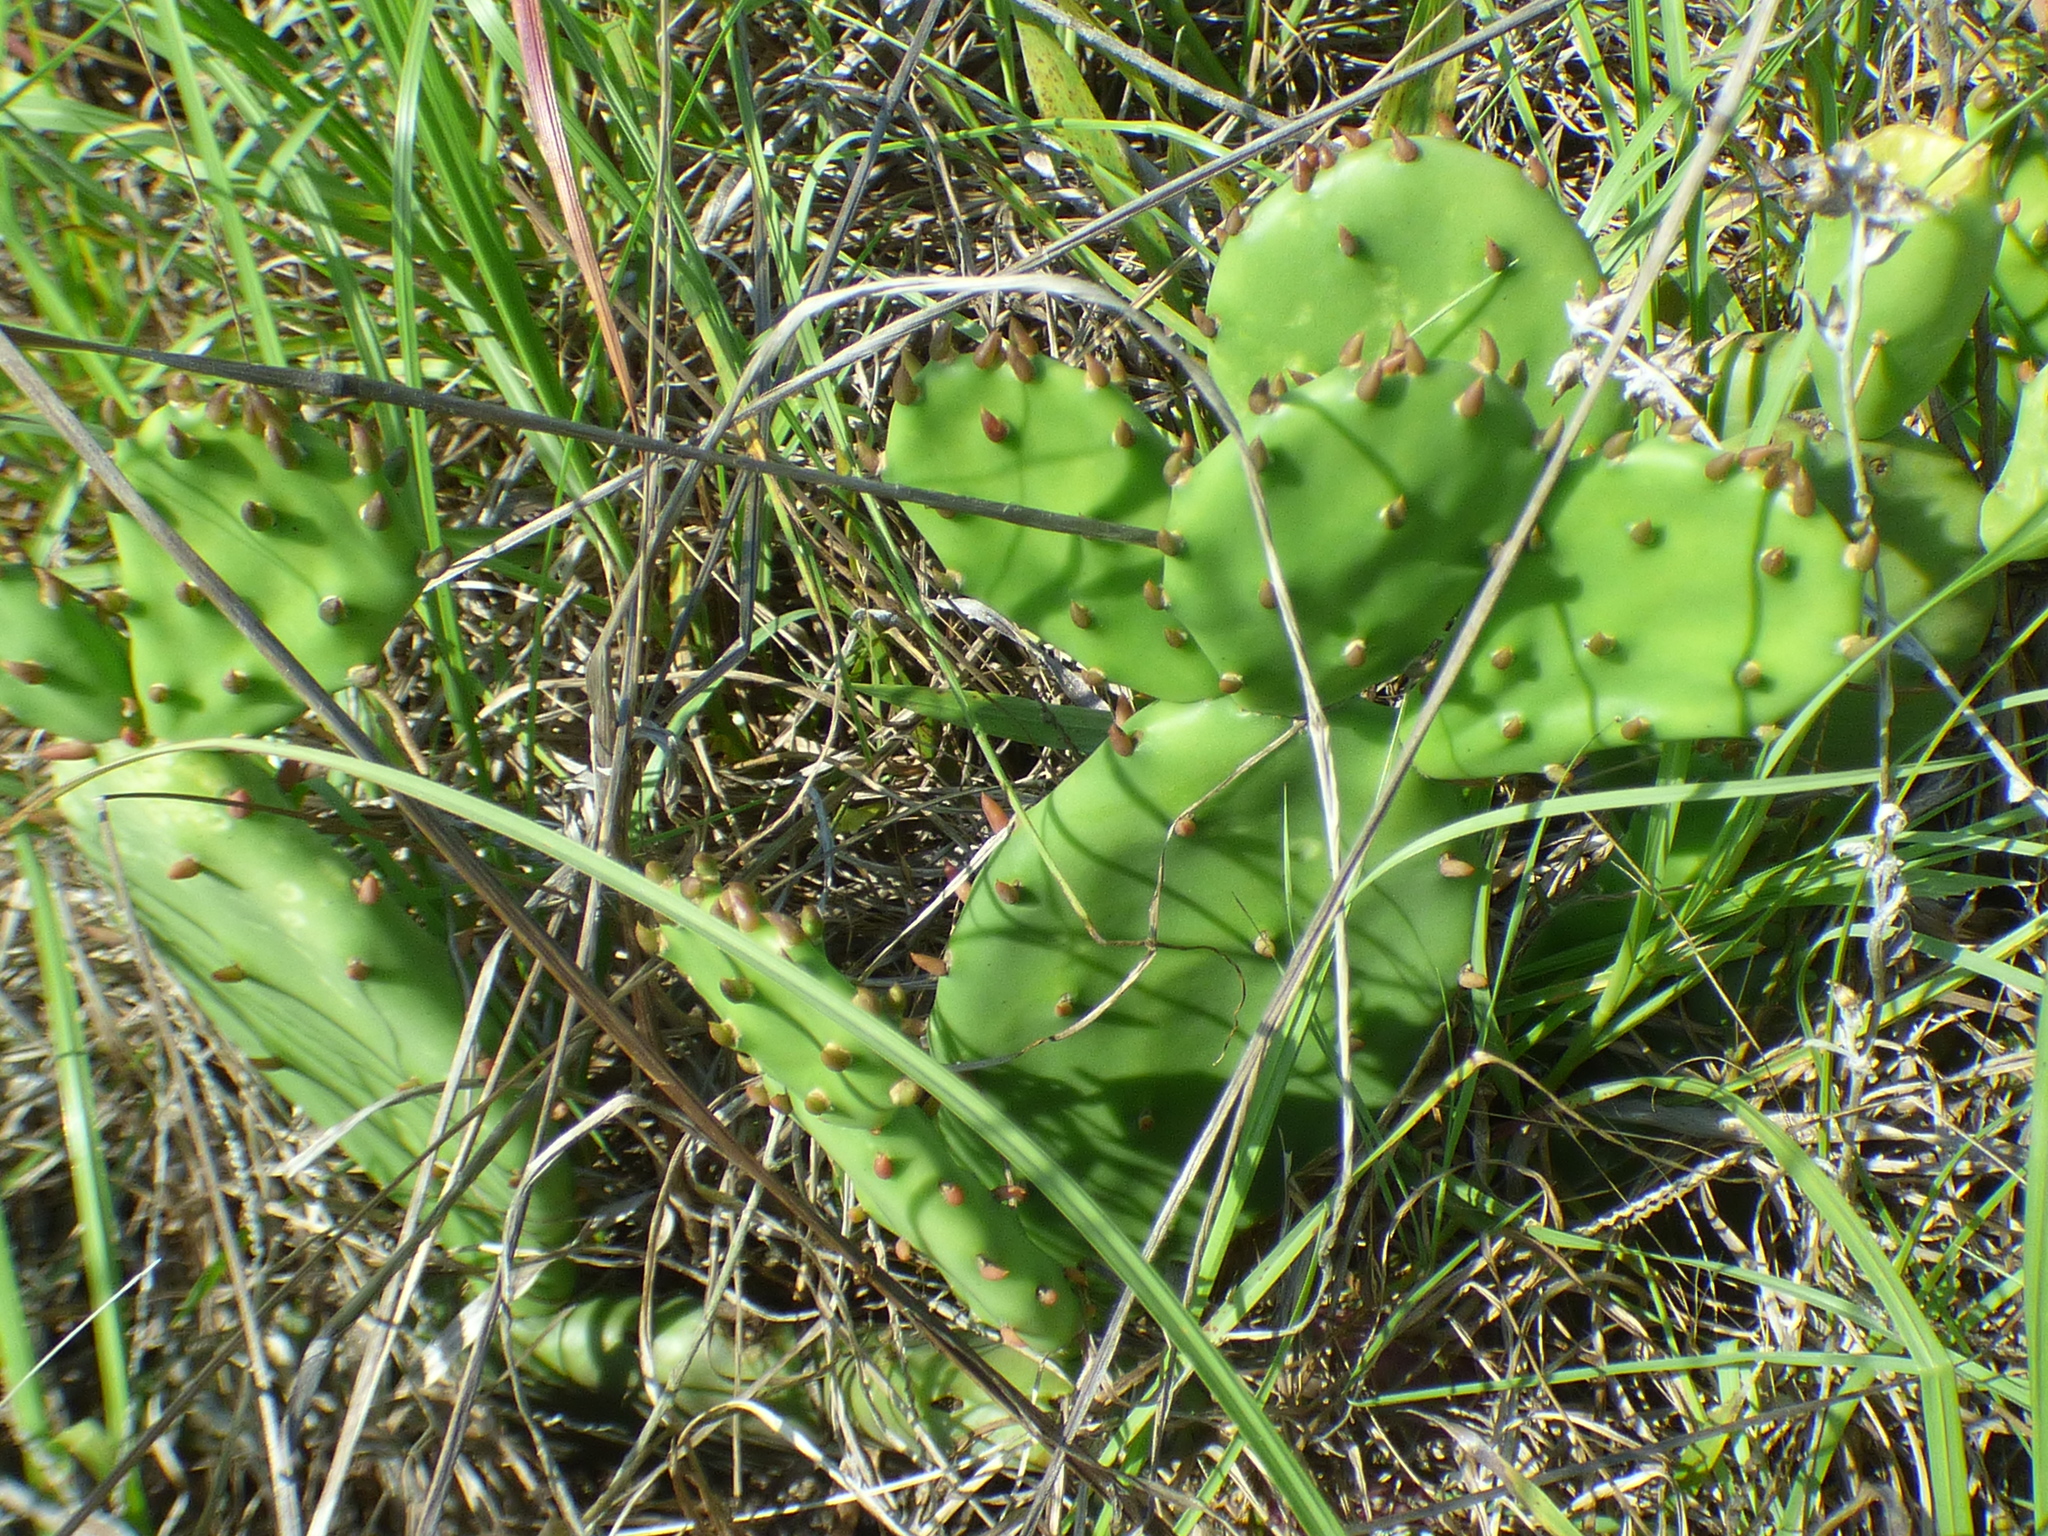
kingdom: Plantae
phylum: Tracheophyta
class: Magnoliopsida
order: Caryophyllales
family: Cactaceae
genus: Opuntia
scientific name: Opuntia humifusa
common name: Eastern prickly-pear
